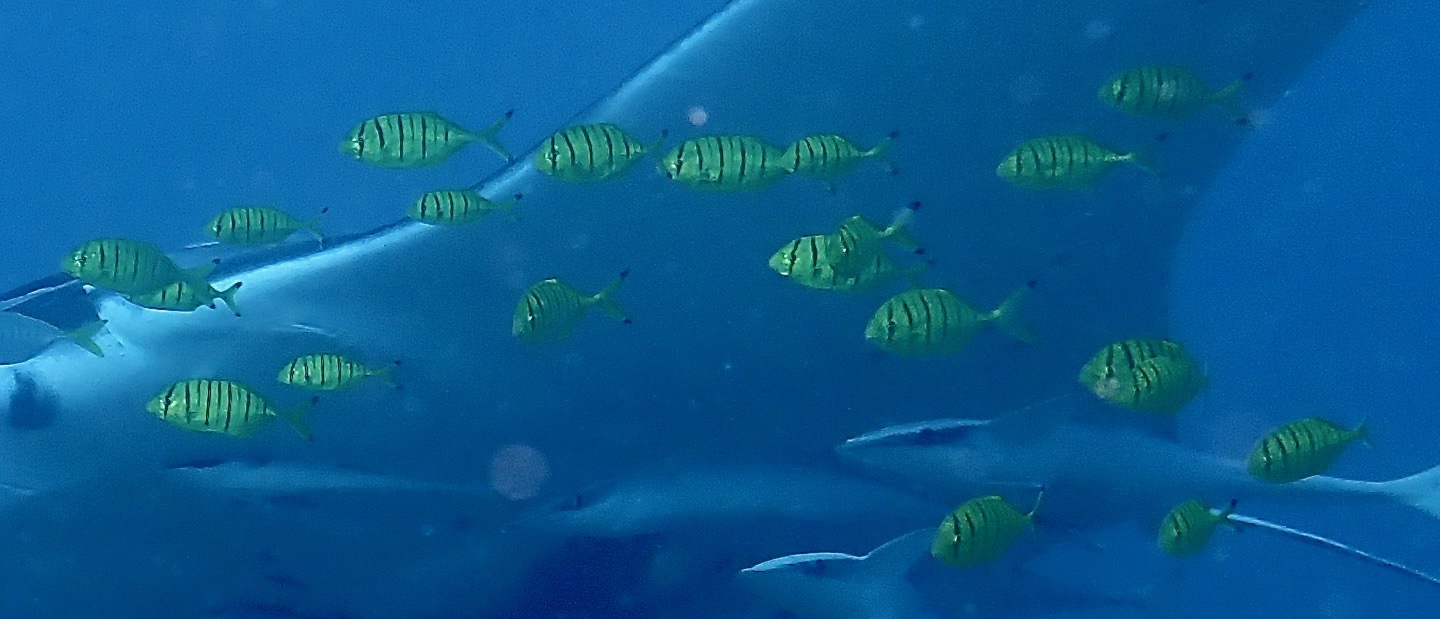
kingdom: Animalia
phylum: Chordata
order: Perciformes
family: Carangidae
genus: Gnathanodon
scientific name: Gnathanodon speciosus
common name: Golden toothless trevally
